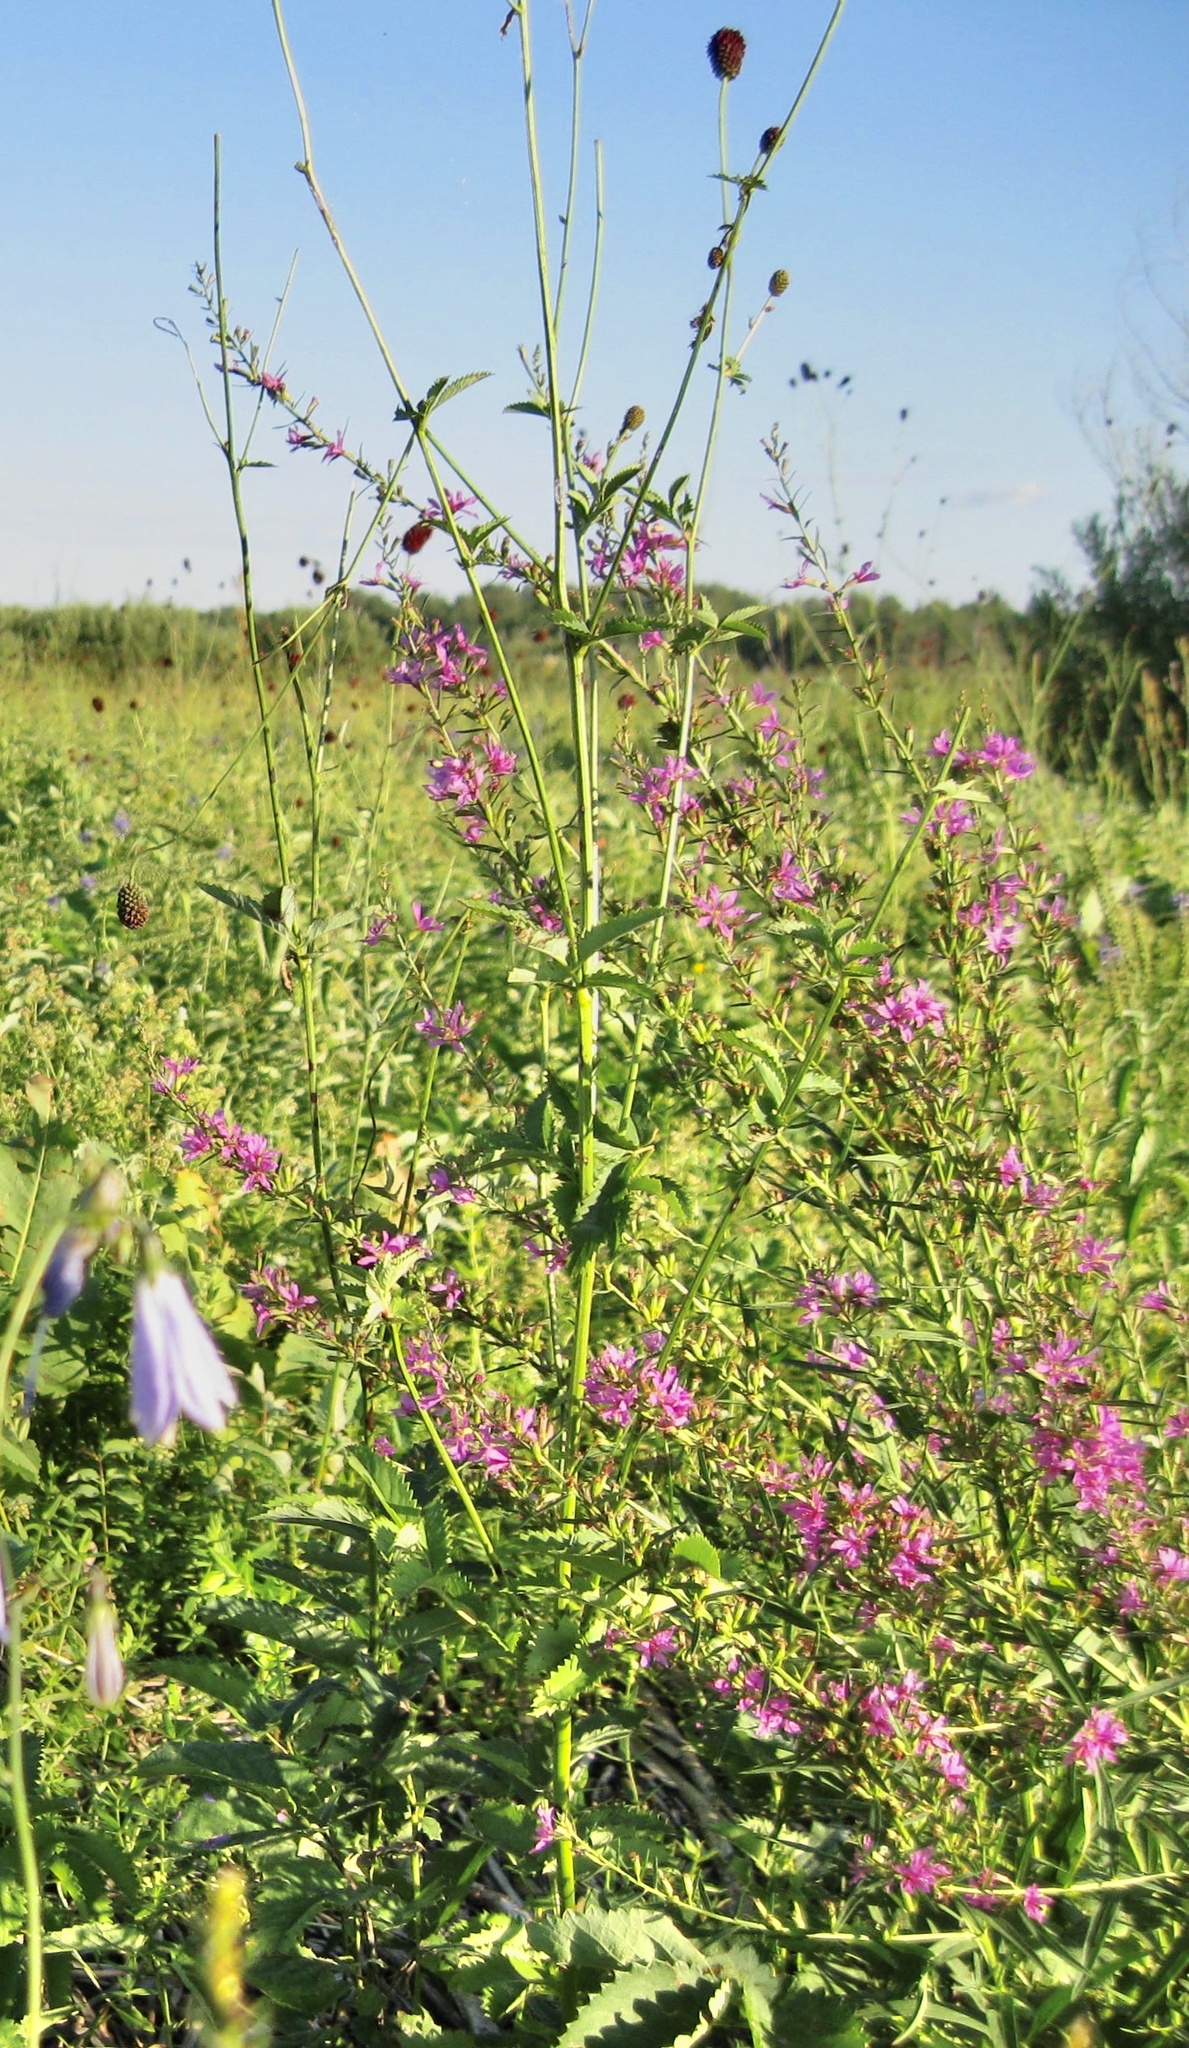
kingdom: Plantae
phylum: Tracheophyta
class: Magnoliopsida
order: Myrtales
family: Lythraceae
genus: Lythrum
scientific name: Lythrum virgatum
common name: European wand loosestrife
